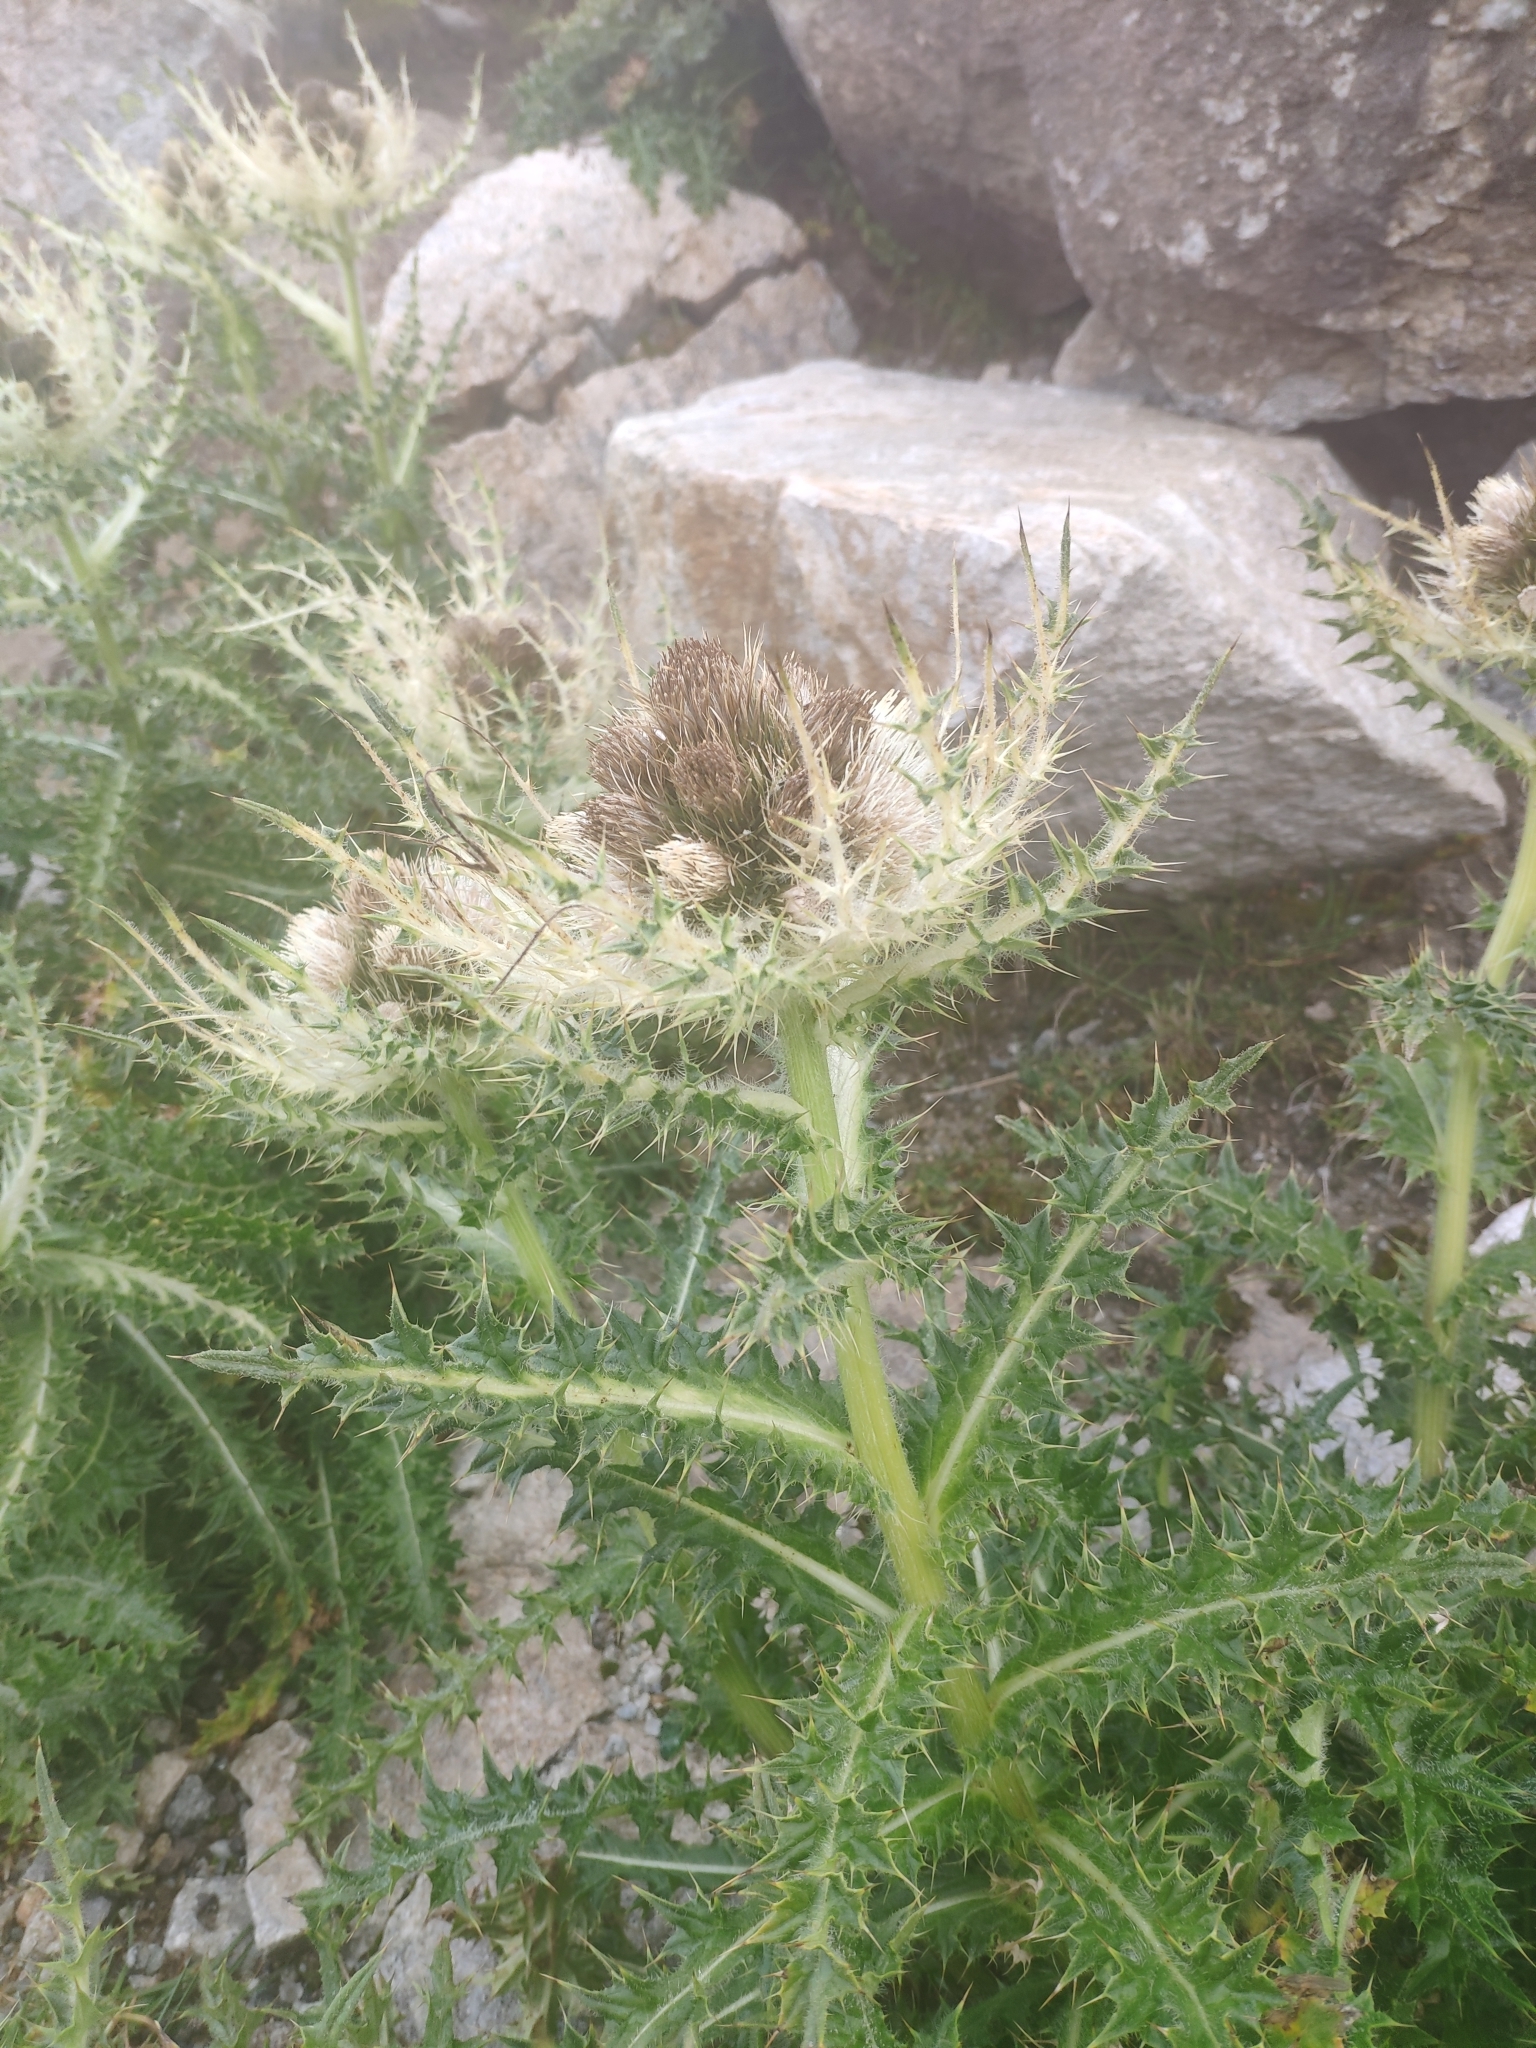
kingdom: Plantae
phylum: Tracheophyta
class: Magnoliopsida
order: Asterales
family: Asteraceae
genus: Cirsium
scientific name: Cirsium spinosissimum
